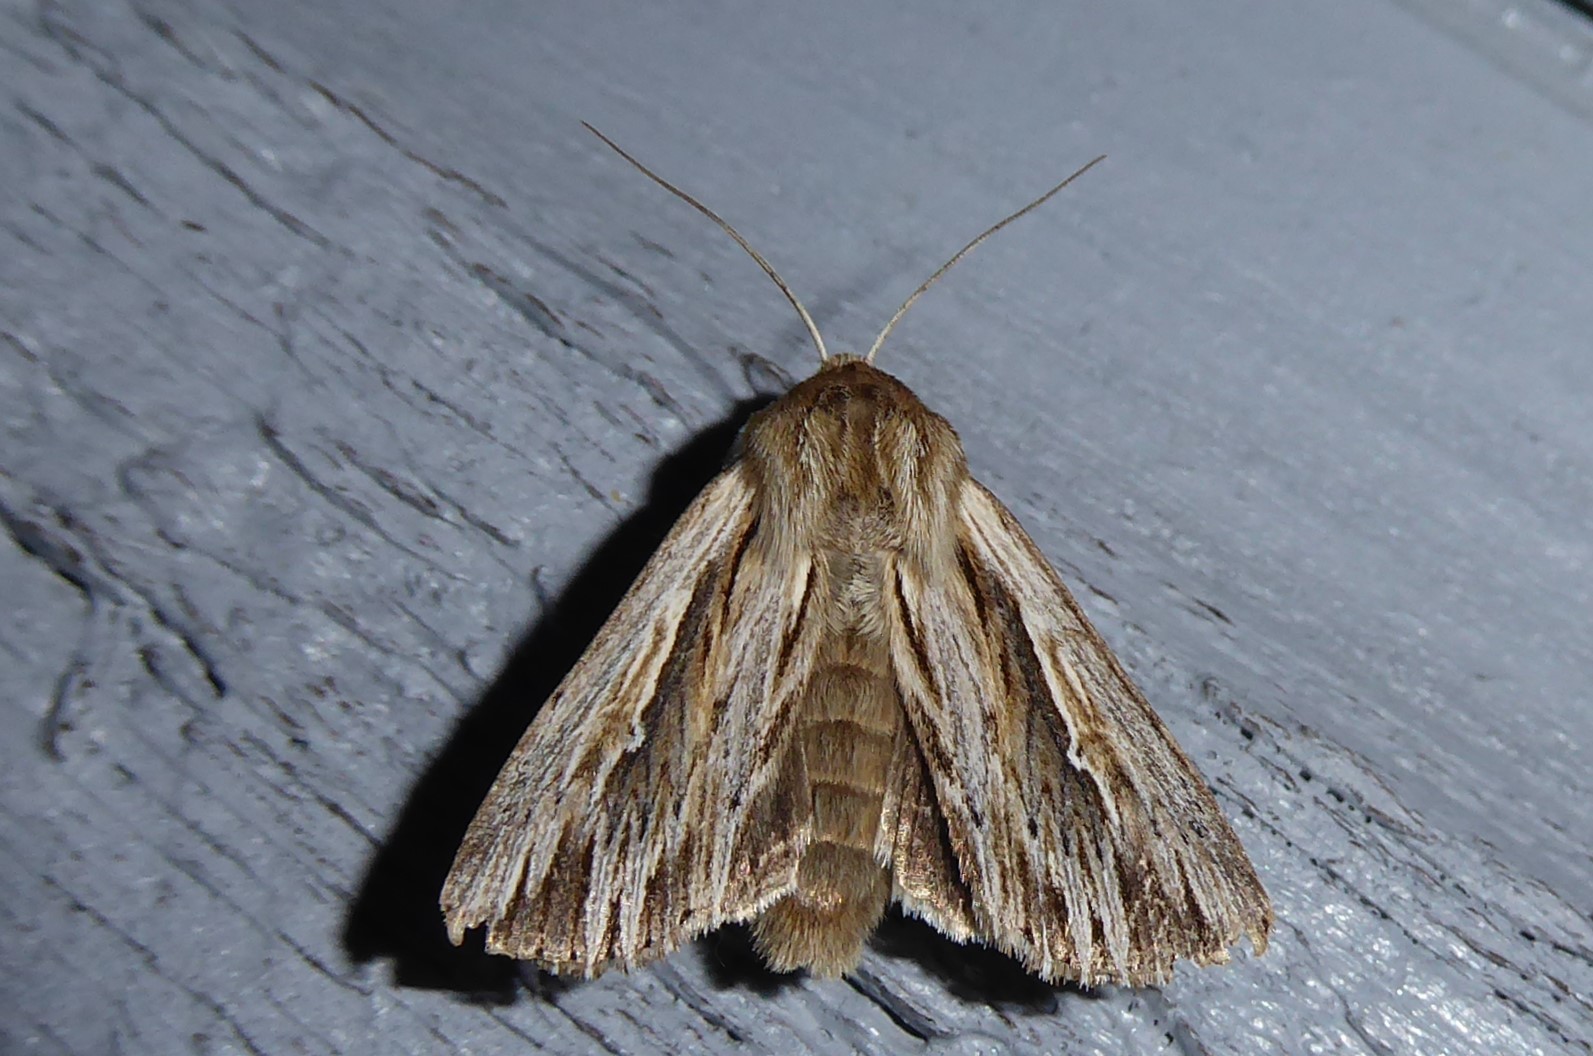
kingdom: Animalia
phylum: Arthropoda
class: Insecta
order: Lepidoptera
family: Noctuidae
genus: Persectania
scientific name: Persectania aversa
